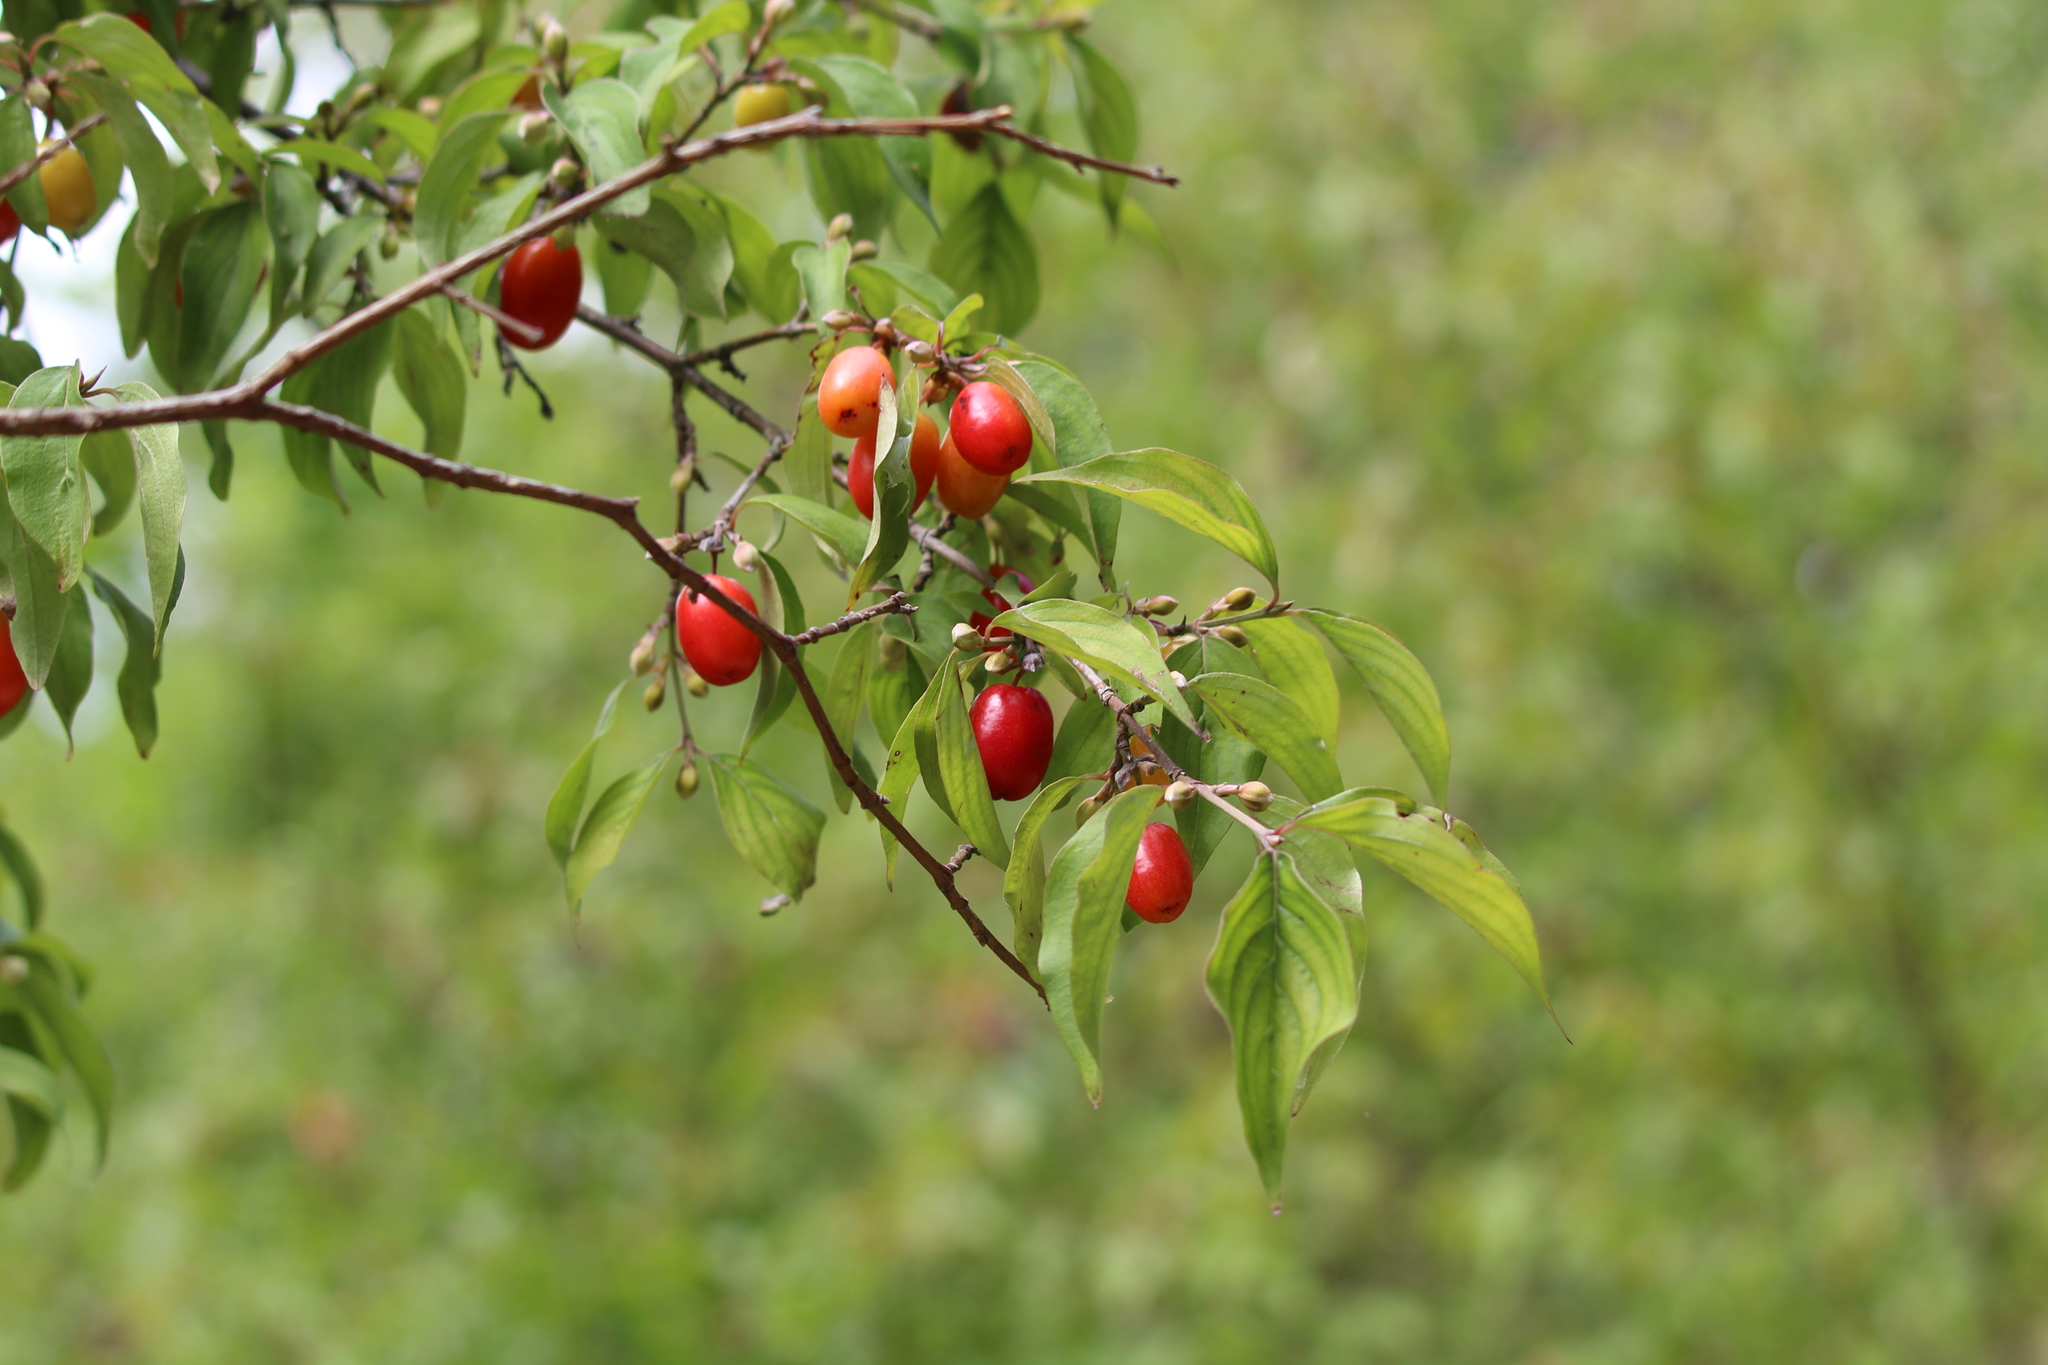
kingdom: Plantae
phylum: Tracheophyta
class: Magnoliopsida
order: Cornales
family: Cornaceae
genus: Cornus
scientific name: Cornus mas
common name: Cornelian-cherry
